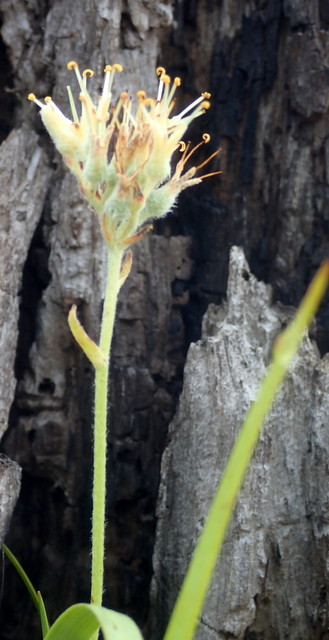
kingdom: Plantae
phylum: Tracheophyta
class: Liliopsida
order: Commelinales
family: Haemodoraceae
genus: Lachnanthes
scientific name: Lachnanthes caroliana
